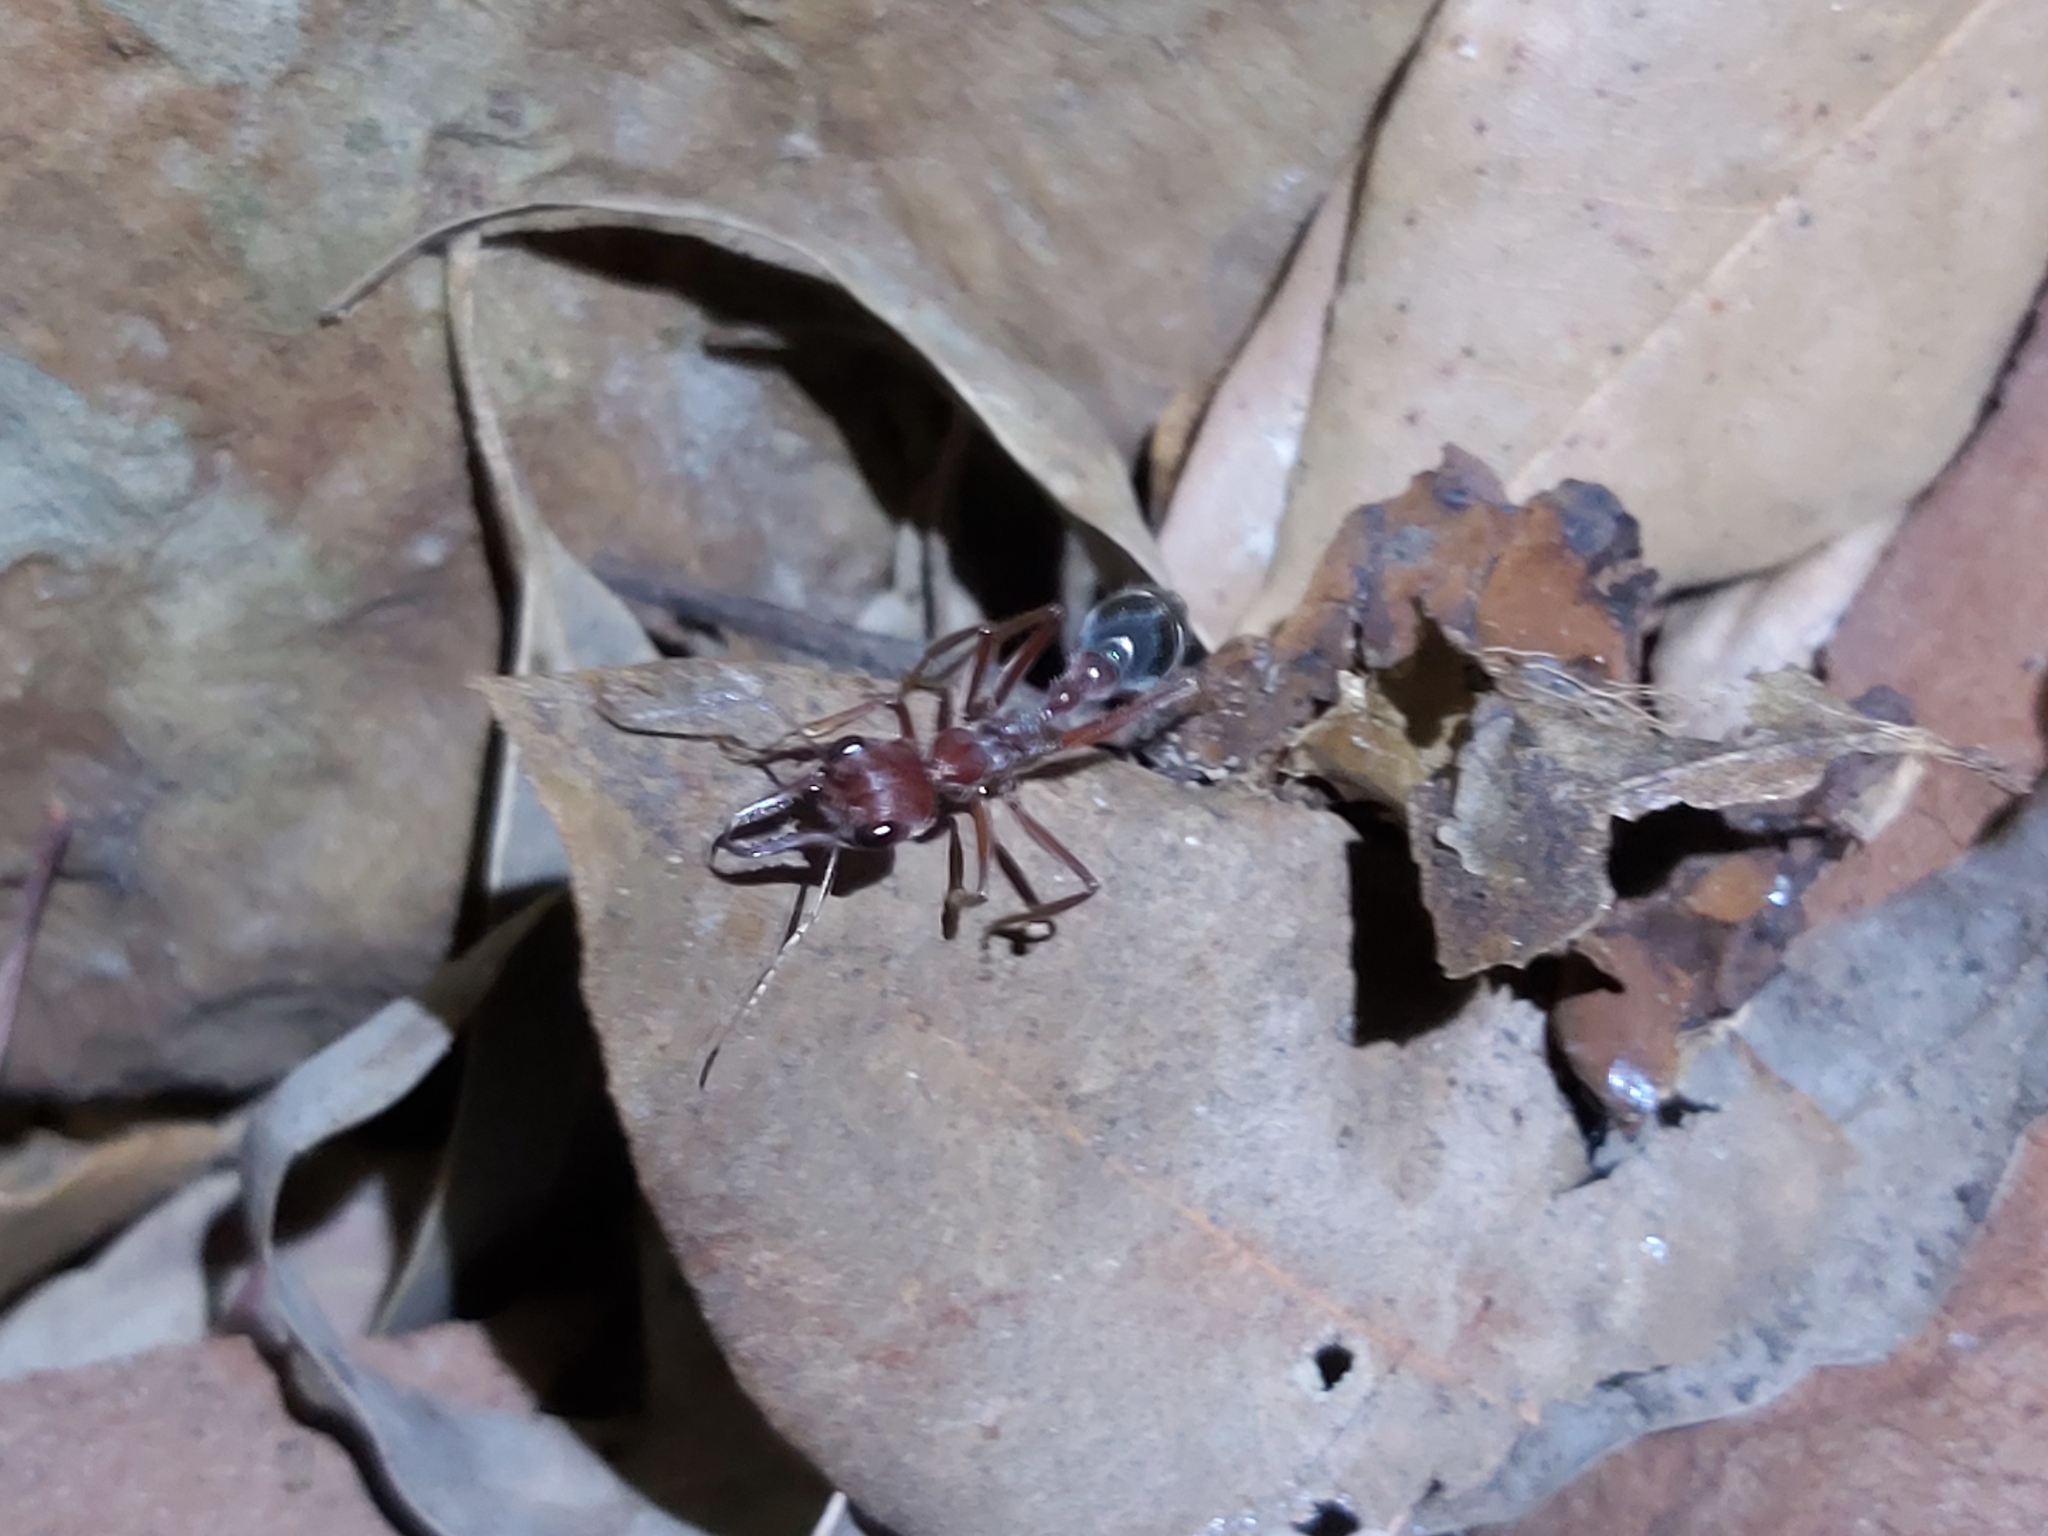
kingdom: Animalia
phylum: Arthropoda
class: Insecta
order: Hymenoptera
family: Formicidae
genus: Myrmecia
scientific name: Myrmecia brevinoda
